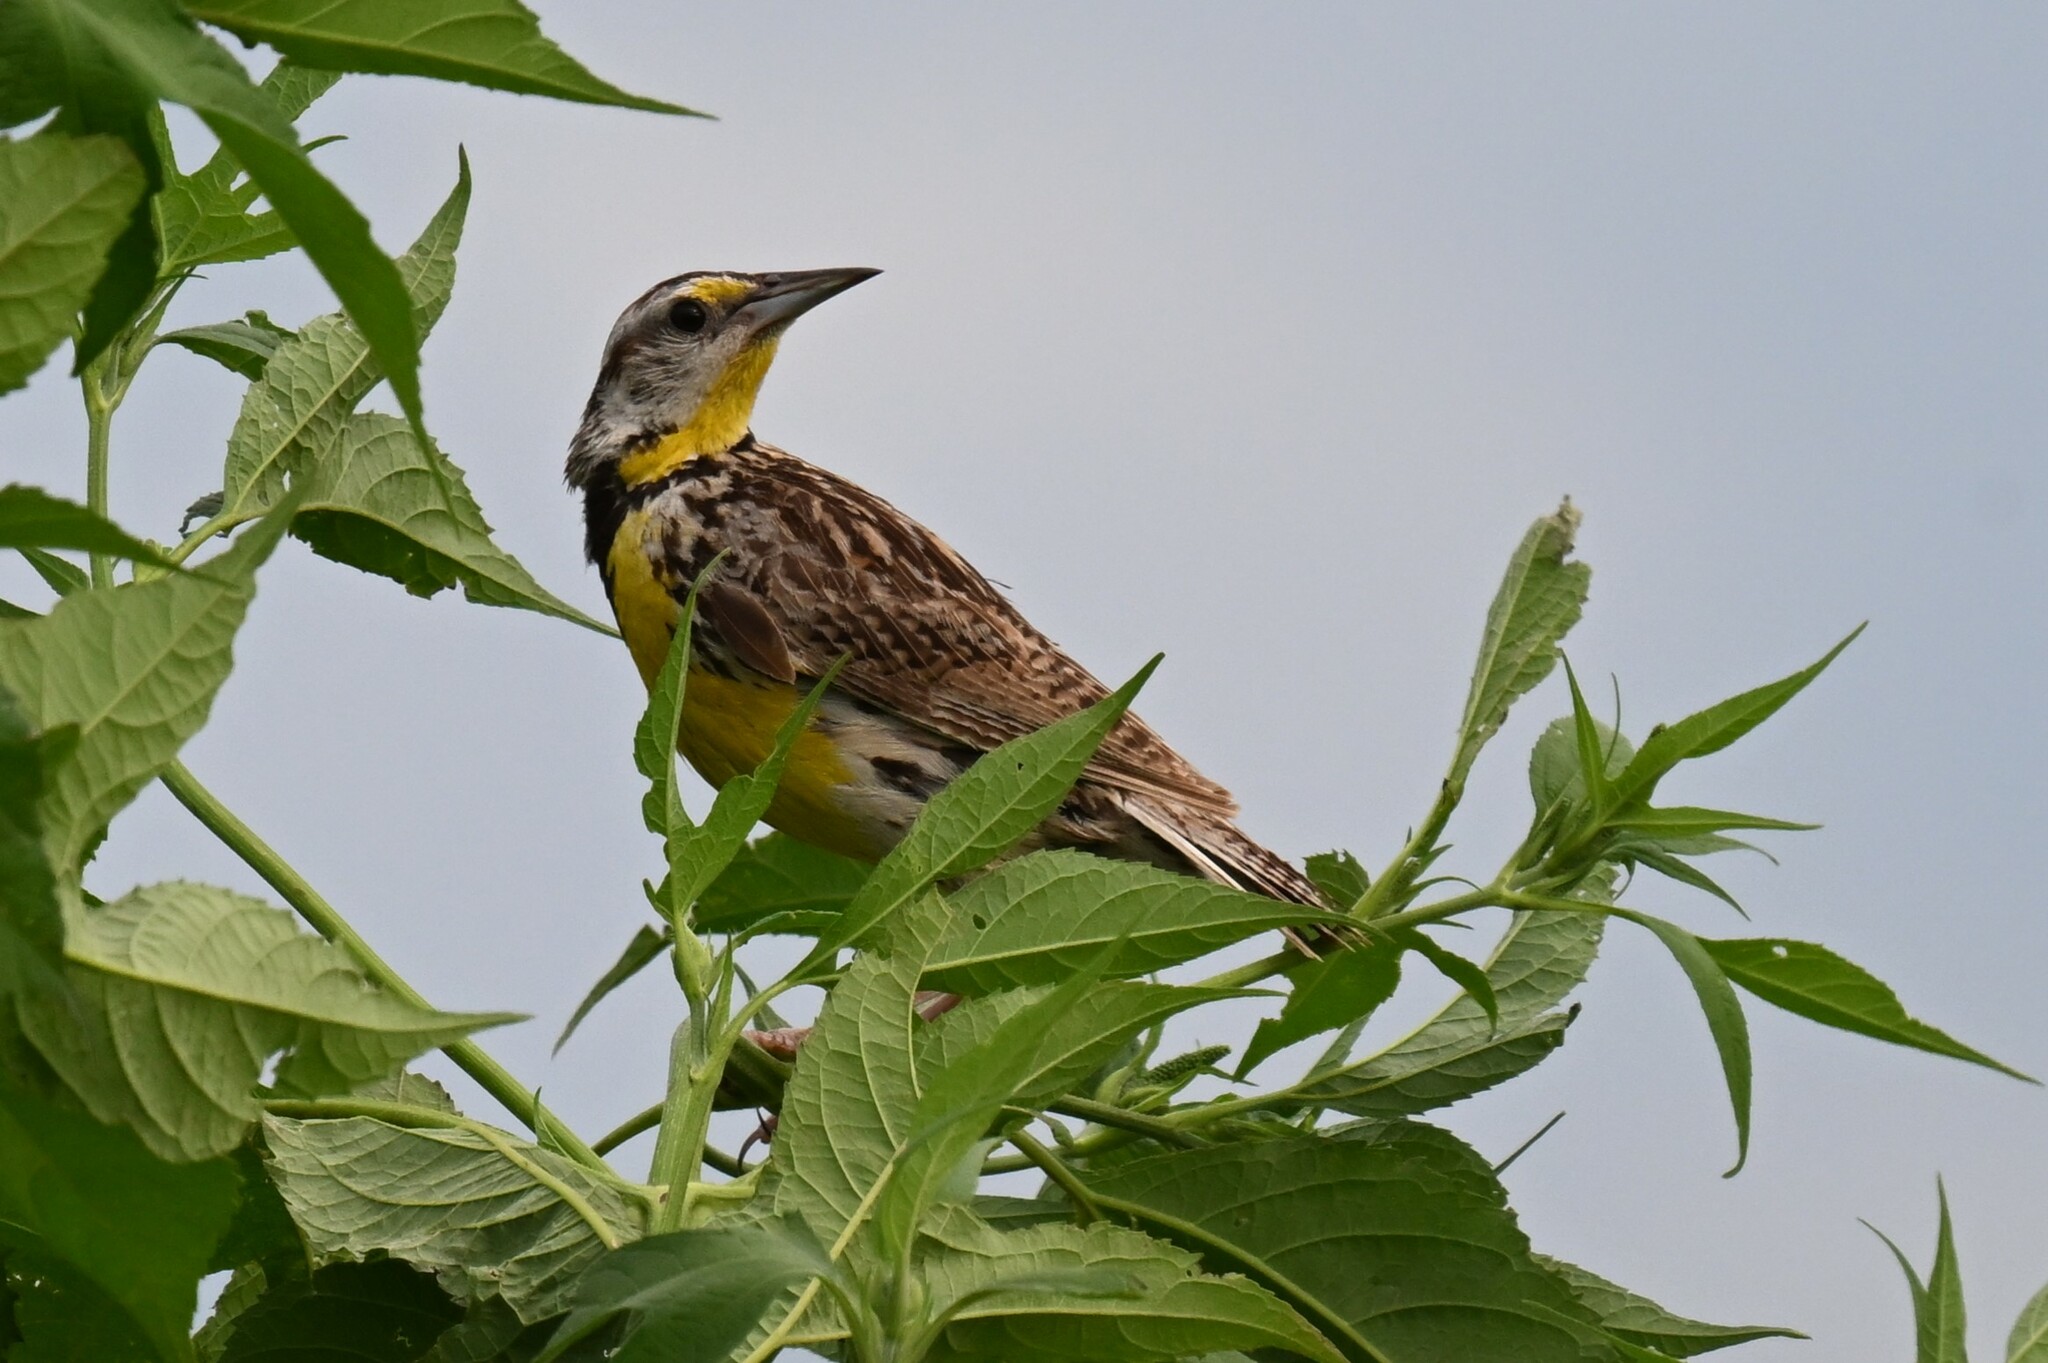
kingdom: Animalia
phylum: Chordata
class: Aves
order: Passeriformes
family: Icteridae
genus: Sturnella
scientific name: Sturnella magna
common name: Eastern meadowlark
